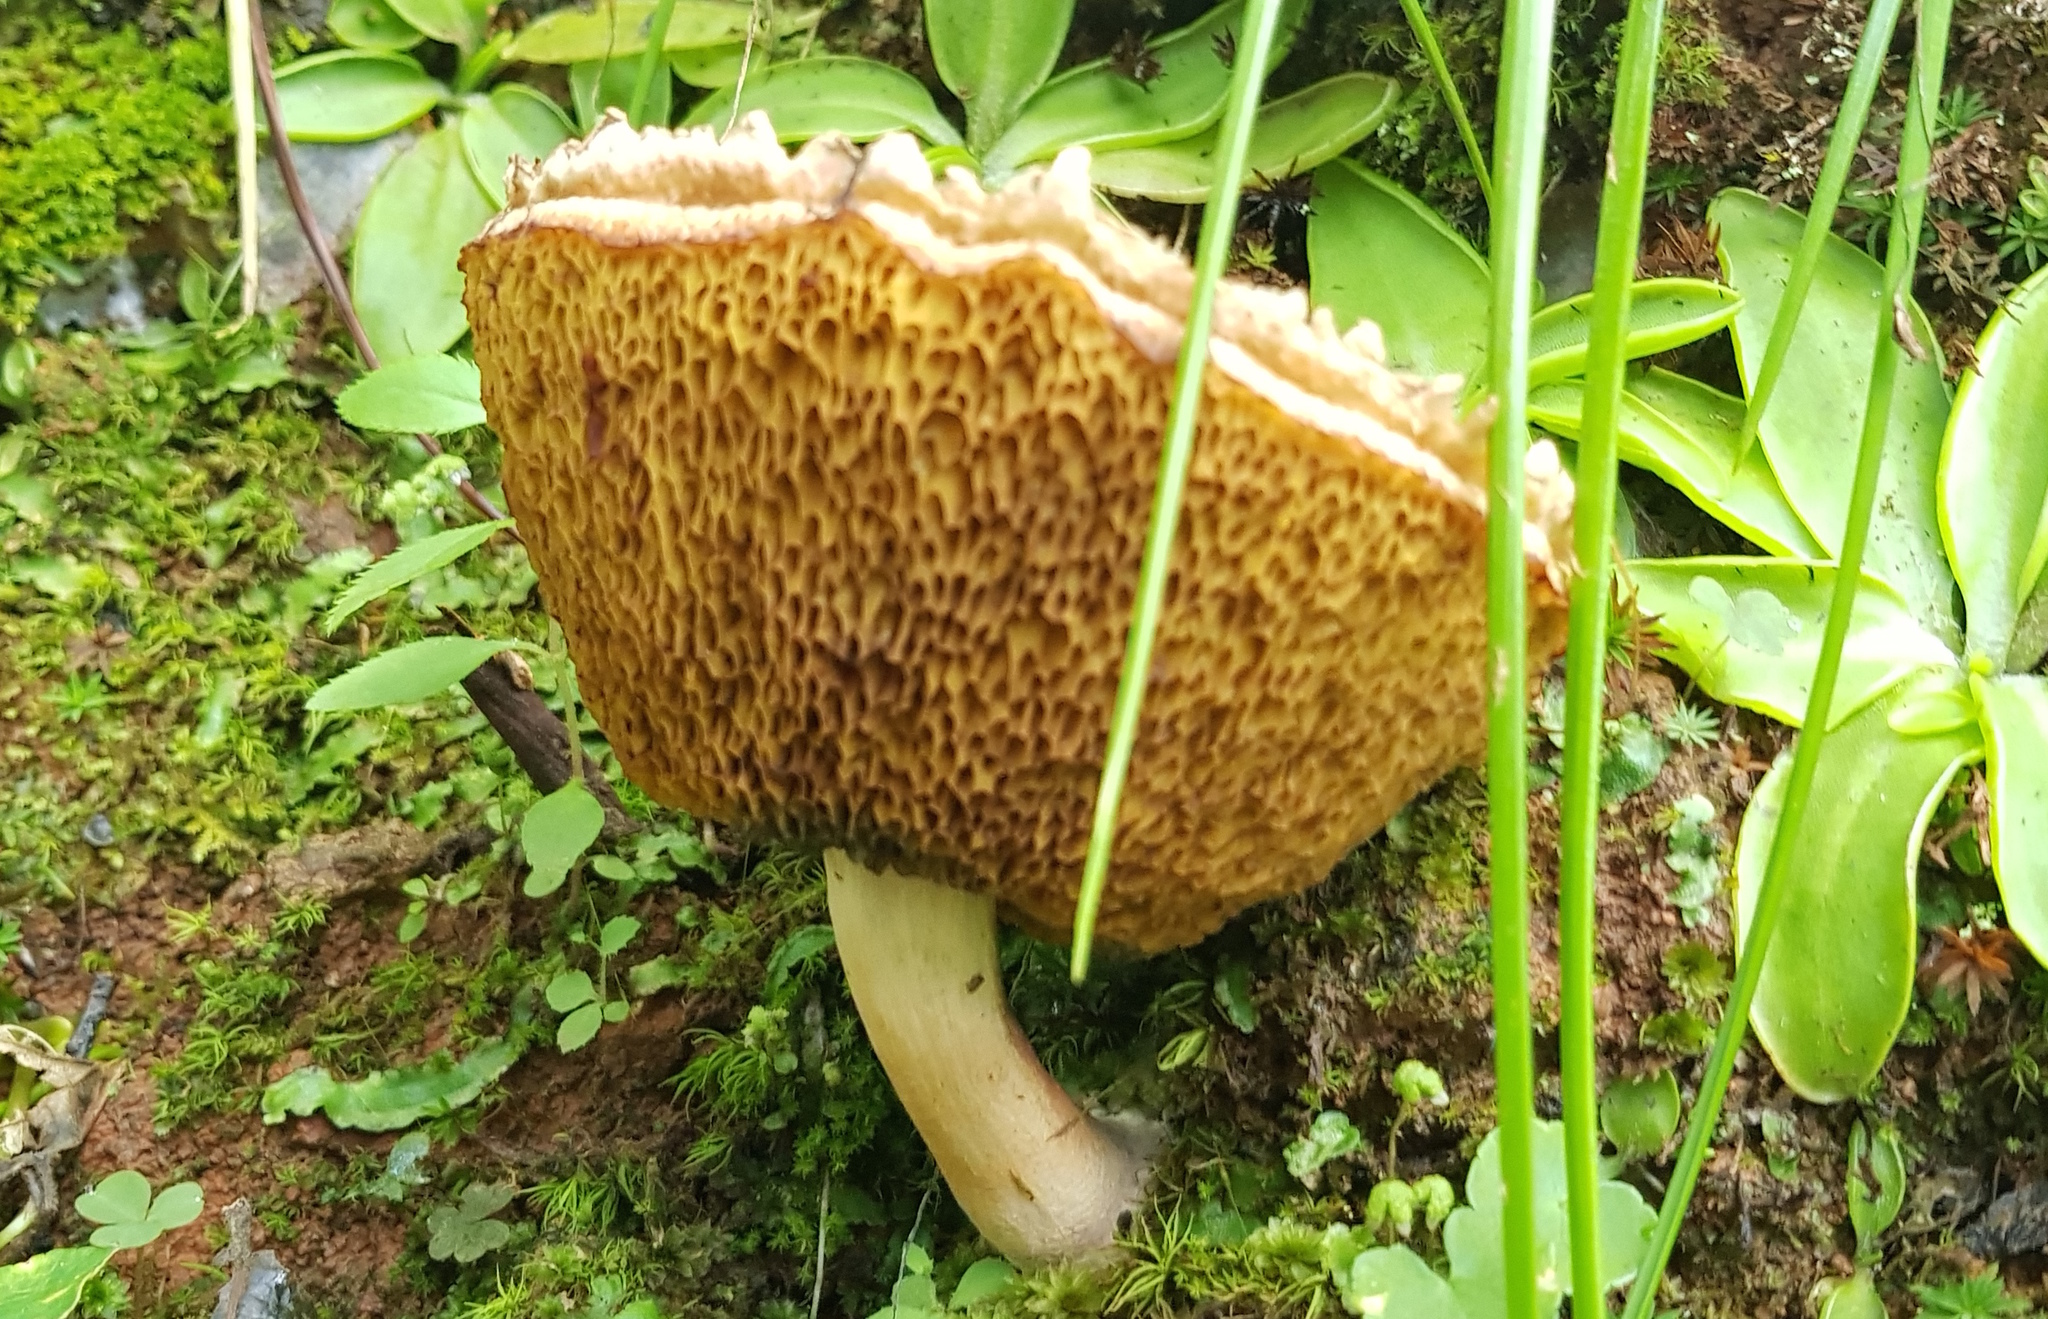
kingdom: Fungi
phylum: Basidiomycota
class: Agaricomycetes
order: Boletales
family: Boletaceae
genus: Boletellus
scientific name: Boletellus ananas
